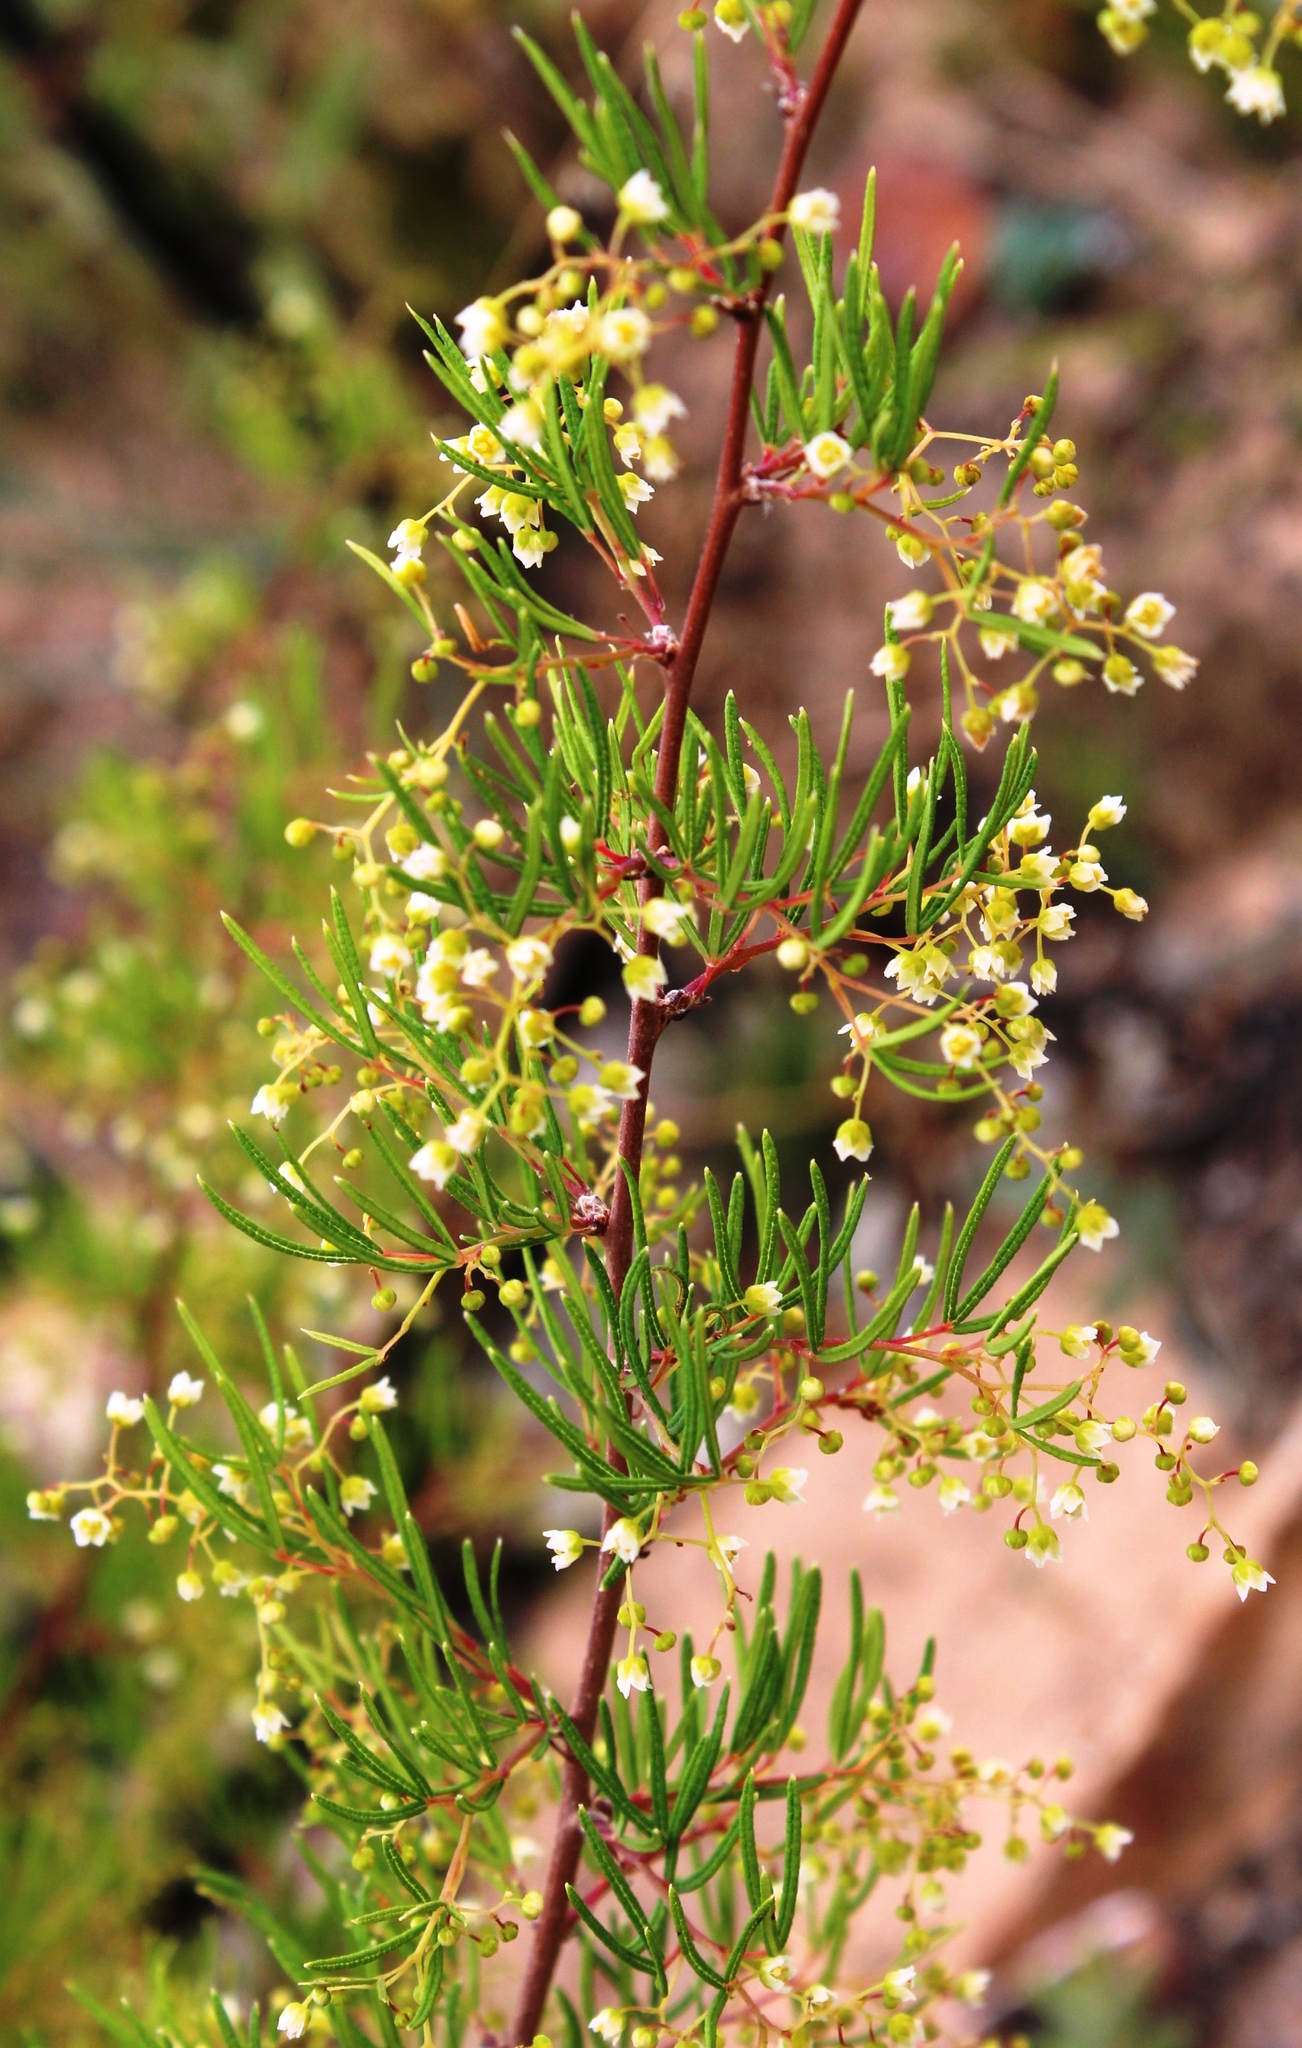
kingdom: Plantae
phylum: Tracheophyta
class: Magnoliopsida
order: Sapindales
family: Anacardiaceae
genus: Searsia
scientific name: Searsia rosmarinifolia
